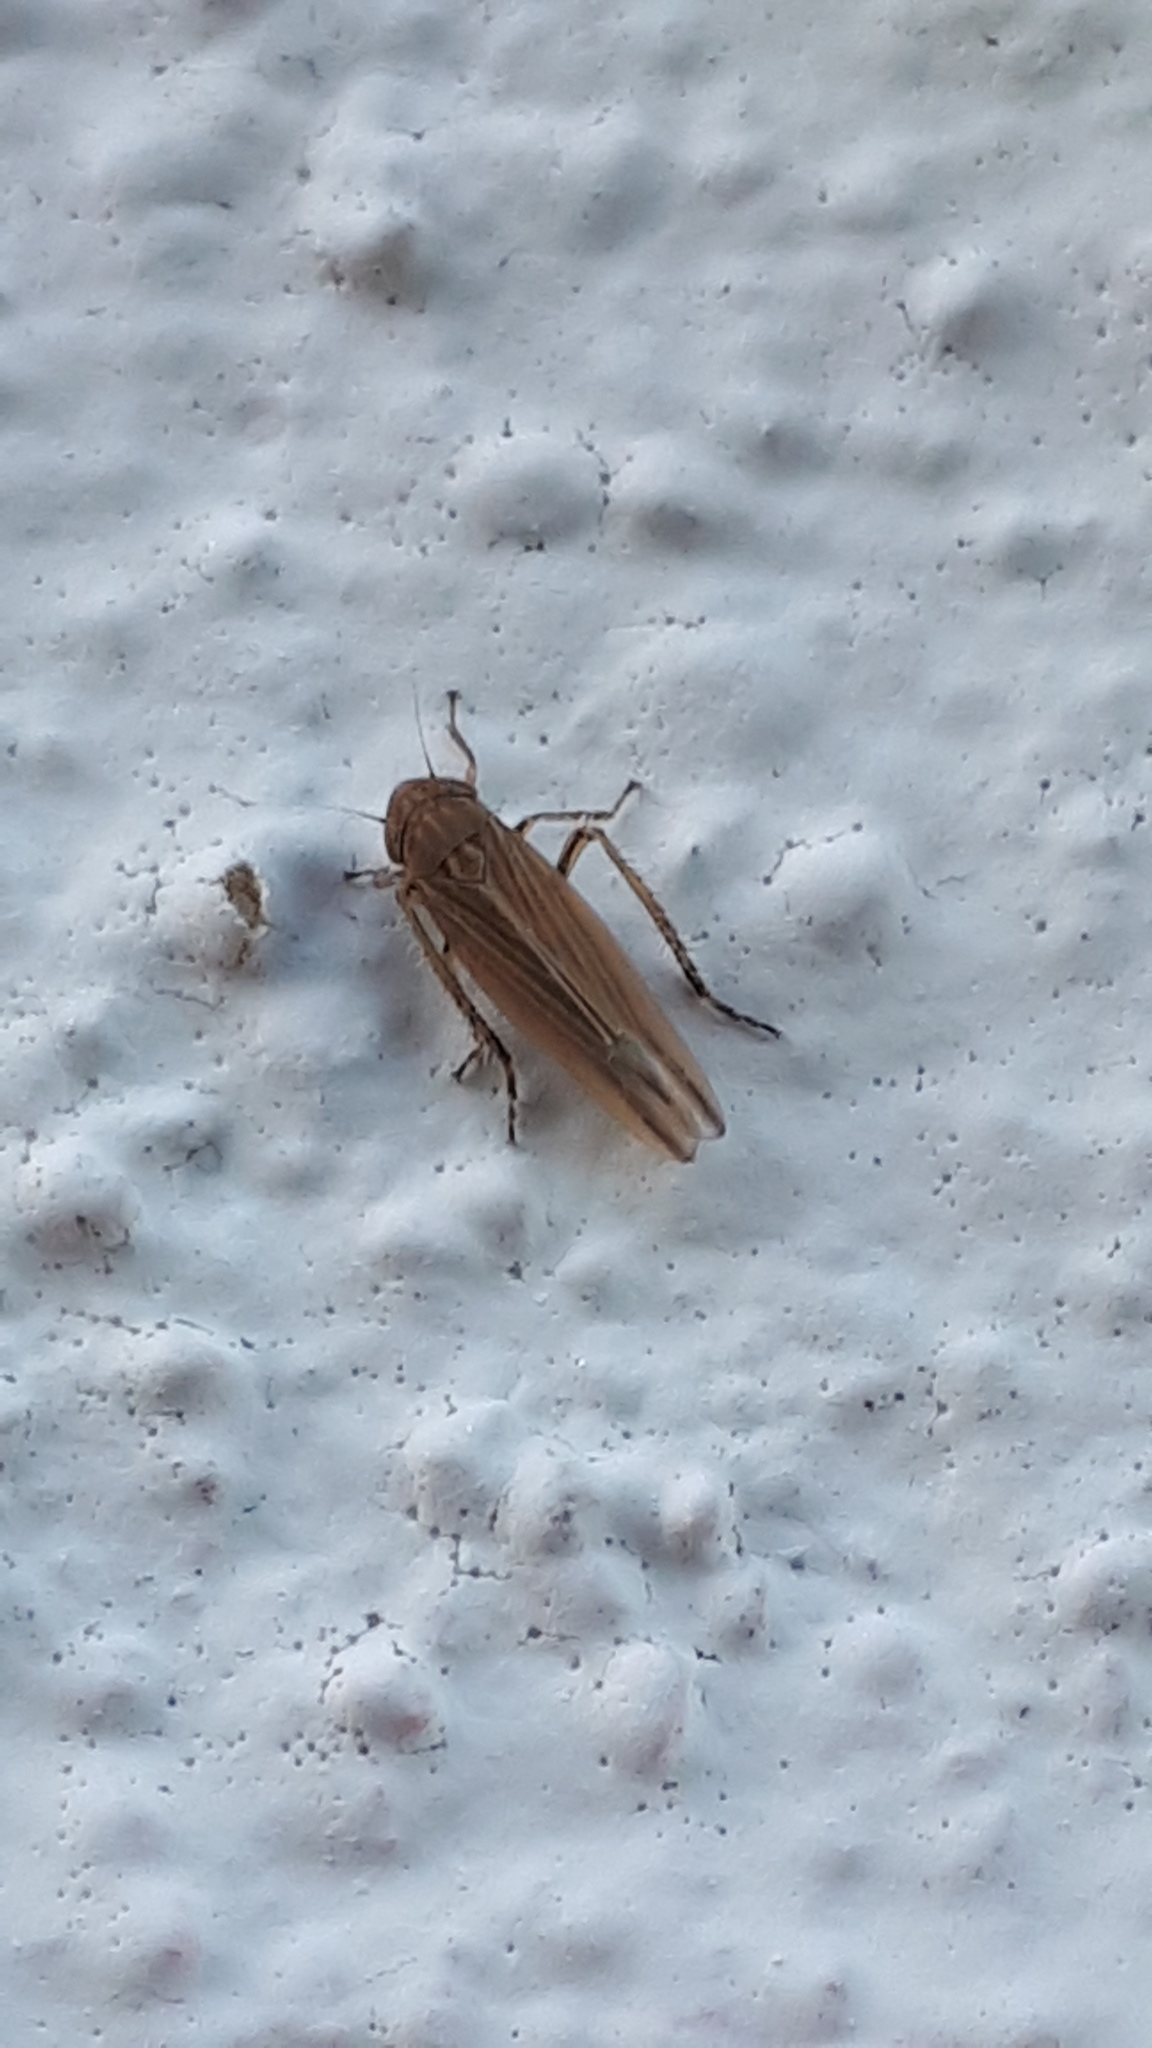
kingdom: Animalia
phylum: Arthropoda
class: Insecta
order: Hemiptera
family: Cicadellidae
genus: Cicadula
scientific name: Cicadula placida
